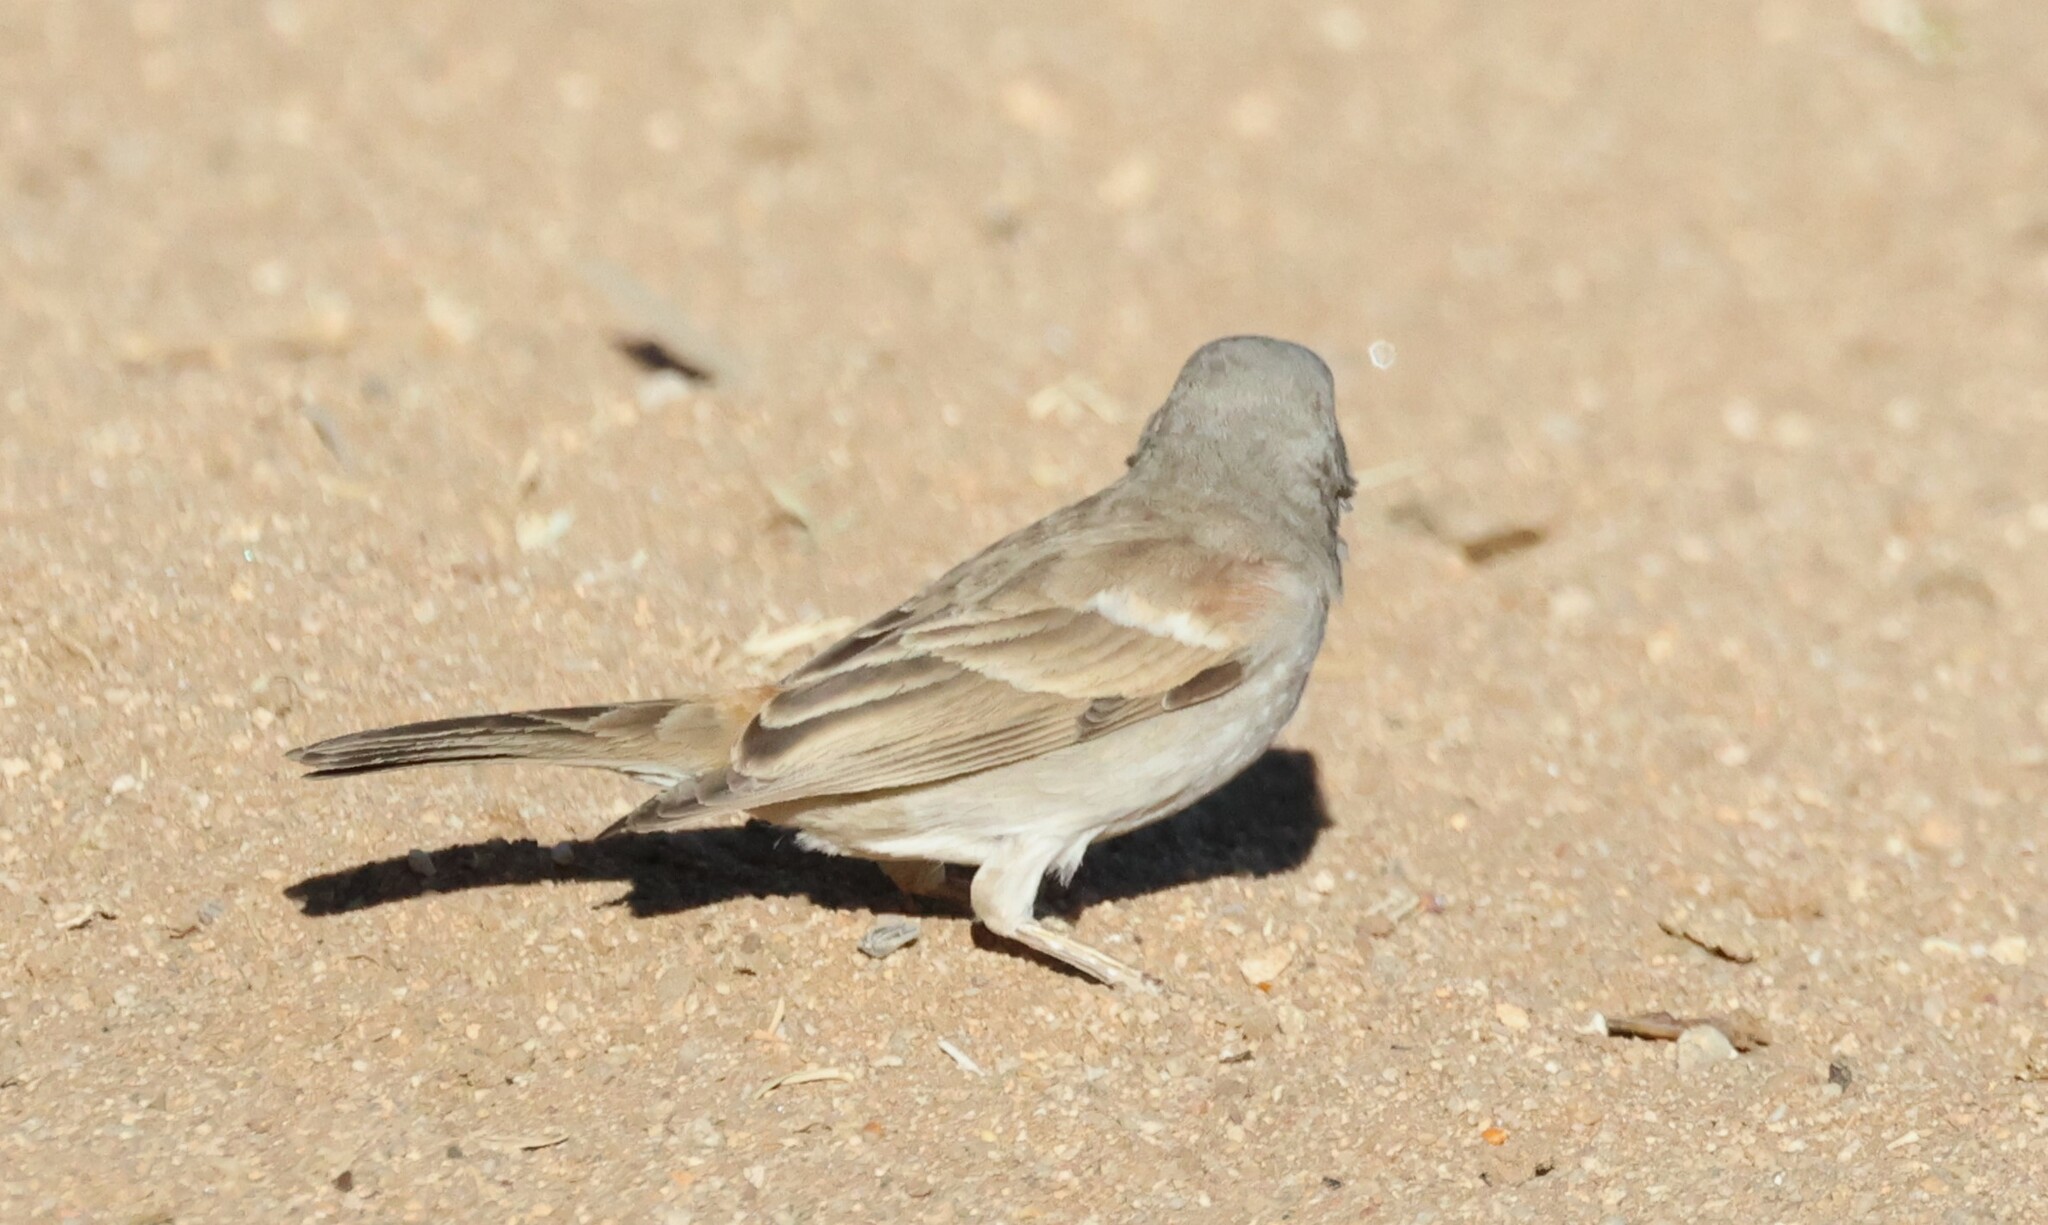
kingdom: Animalia
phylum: Chordata
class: Aves
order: Passeriformes
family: Passeridae
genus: Passer
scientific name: Passer diffusus
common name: Southern grey-headed sparrow
